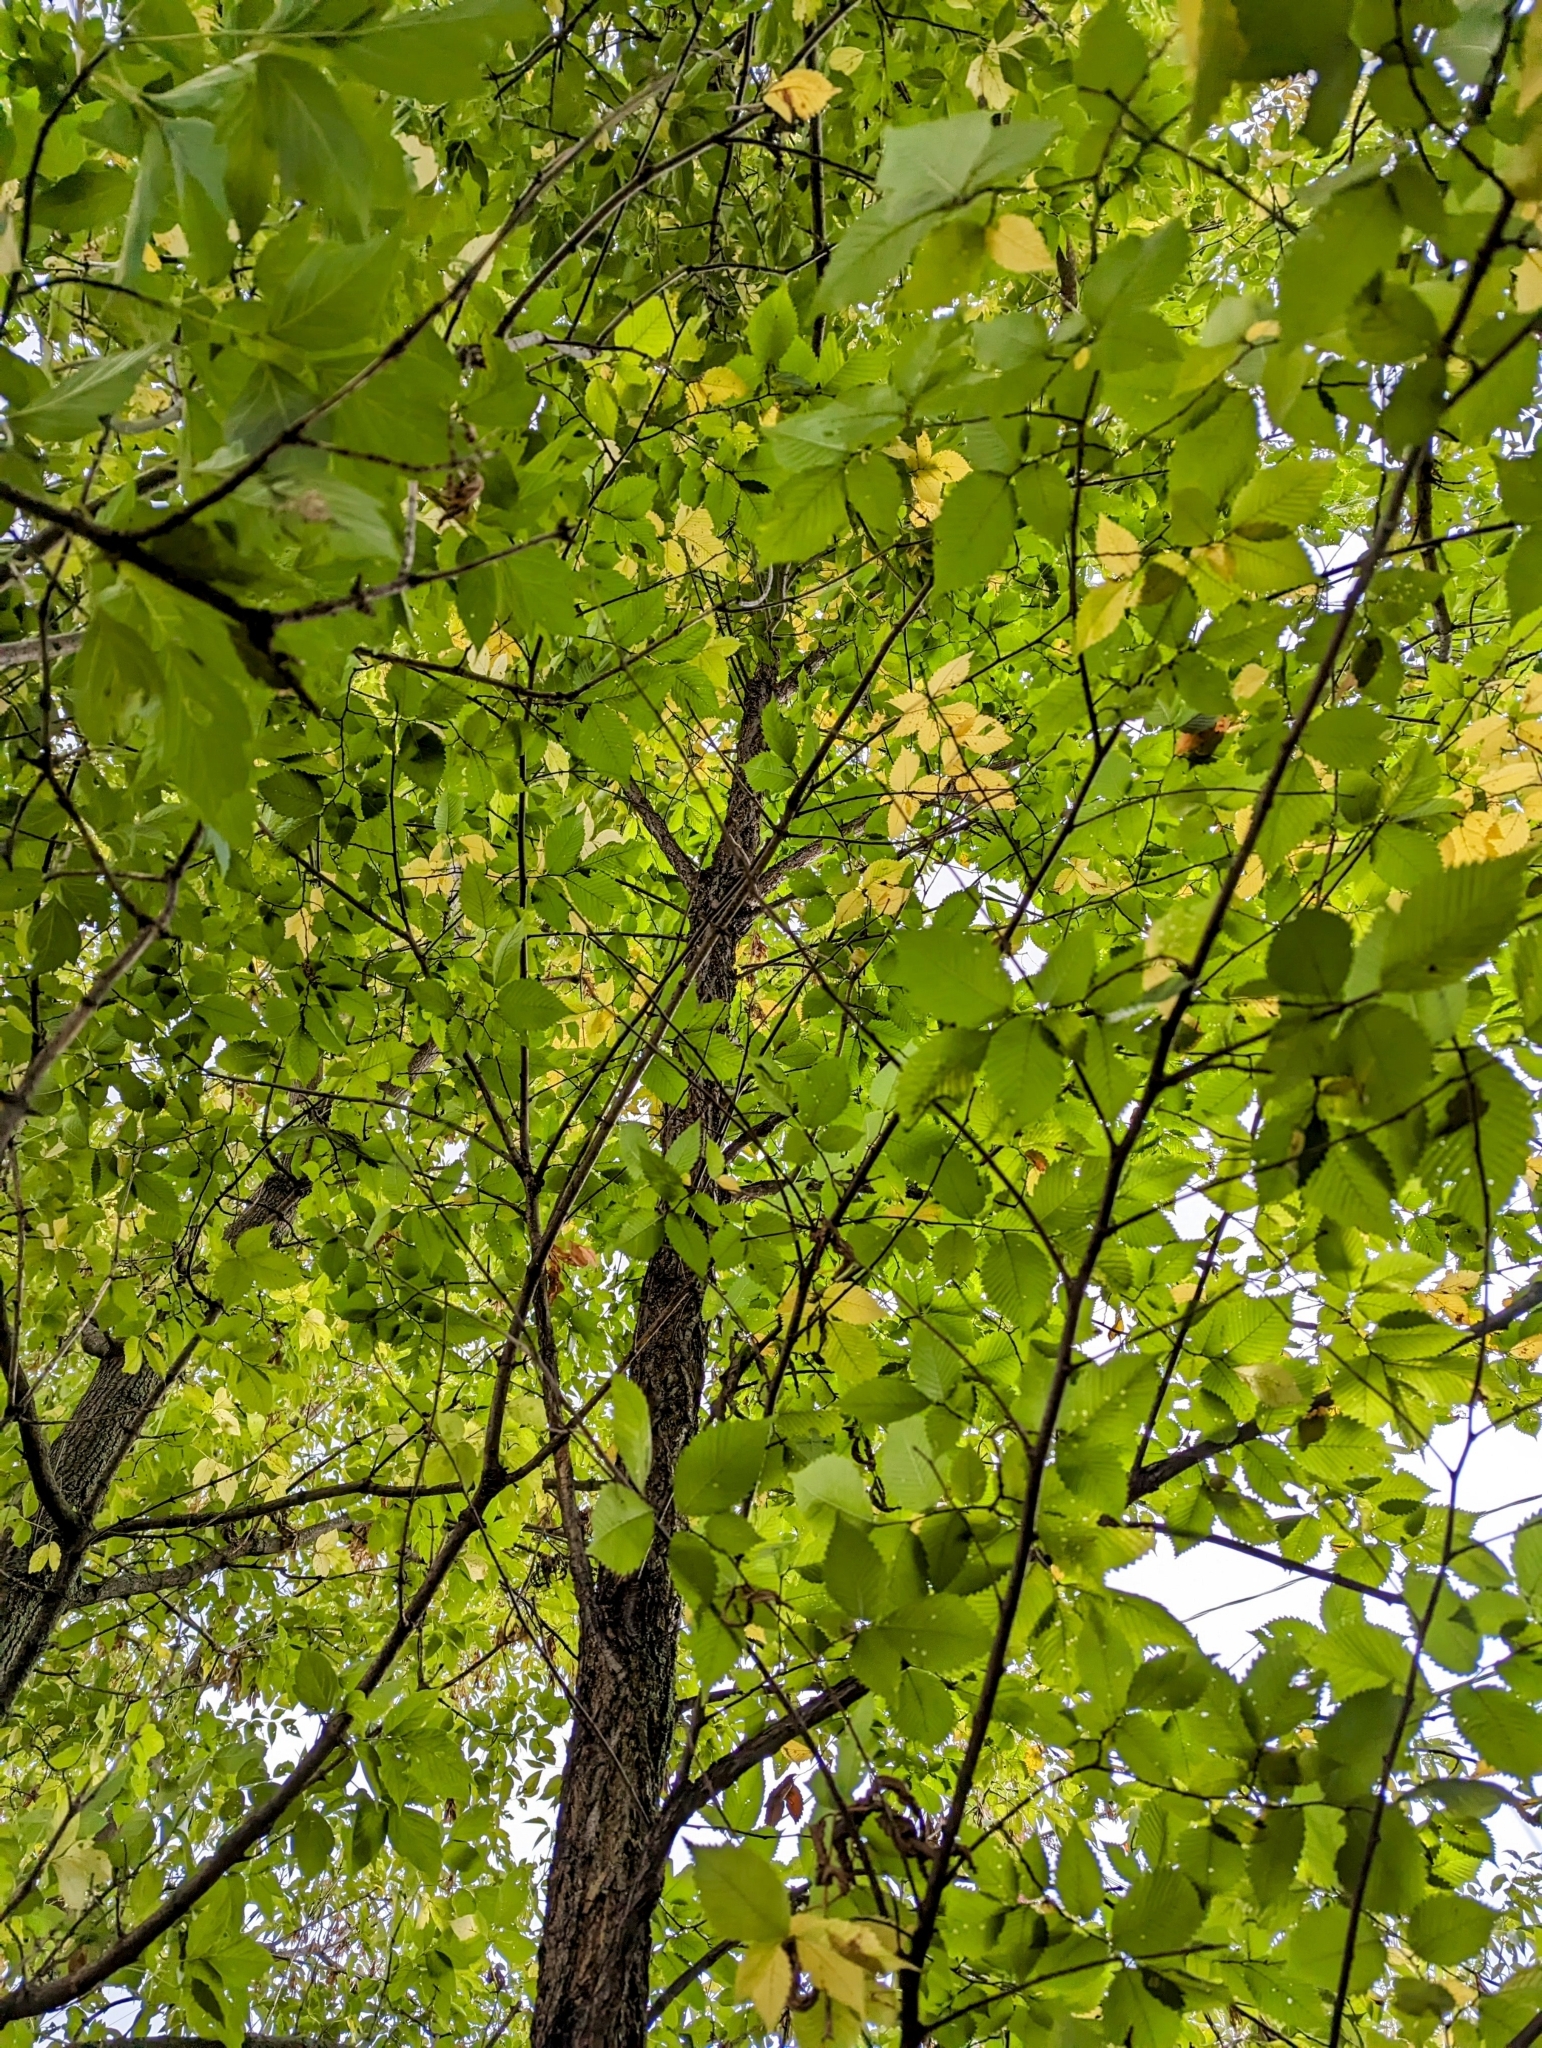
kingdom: Plantae
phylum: Tracheophyta
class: Magnoliopsida
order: Rosales
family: Ulmaceae
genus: Ulmus
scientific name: Ulmus americana
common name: American elm
